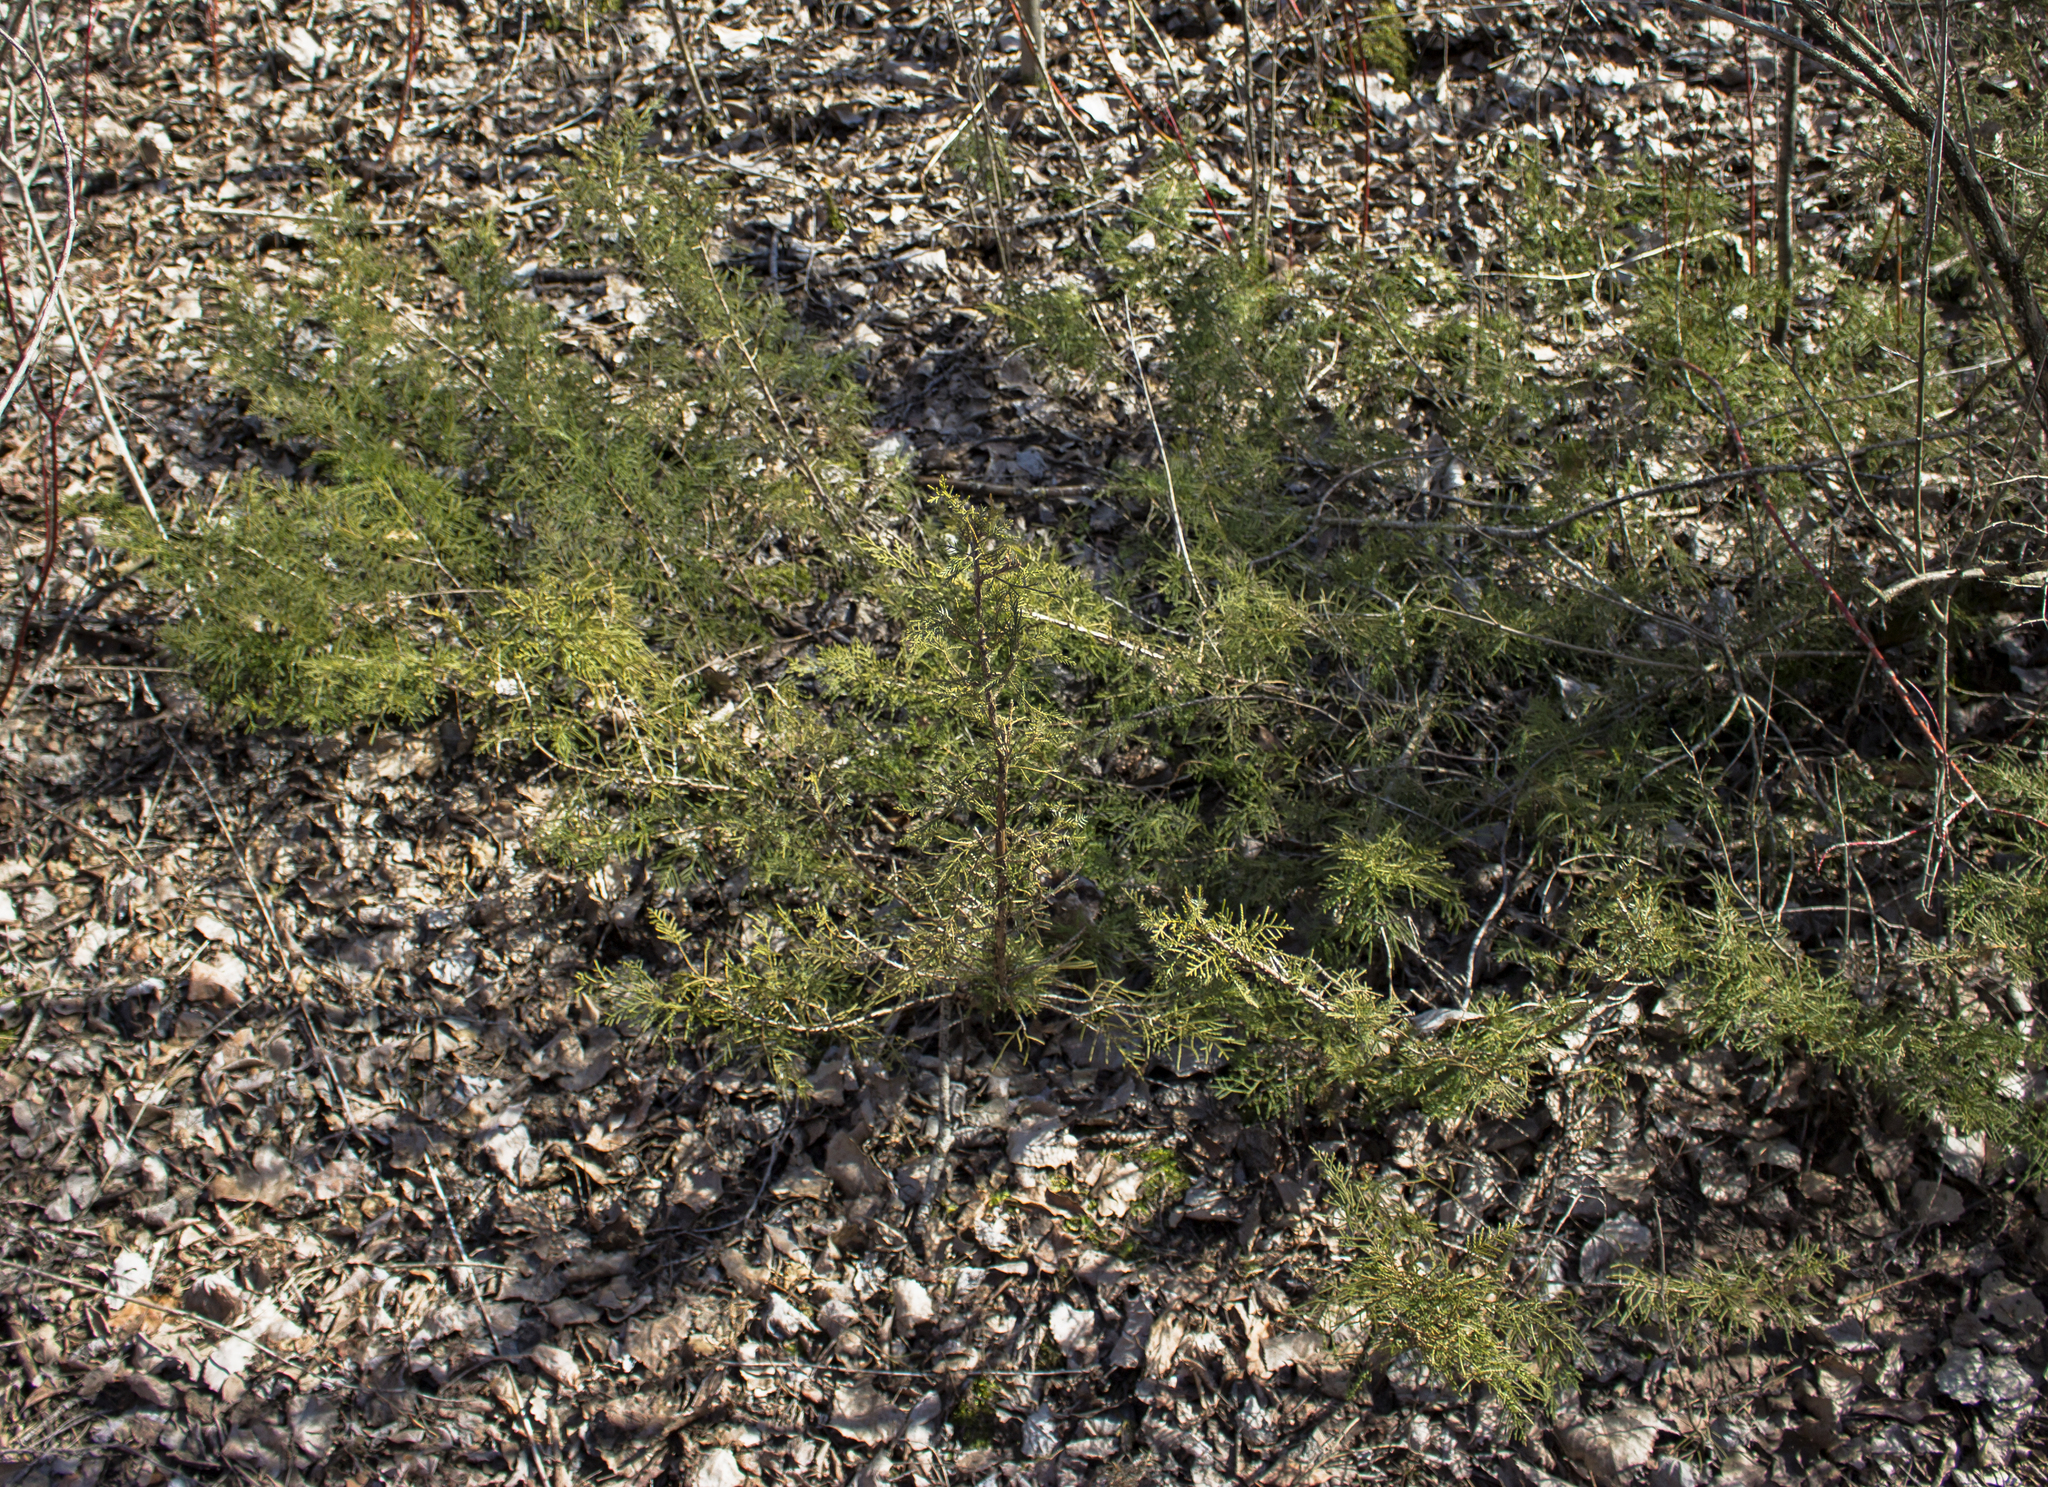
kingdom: Plantae
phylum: Tracheophyta
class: Pinopsida
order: Pinales
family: Cupressaceae
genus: Juniperus
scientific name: Juniperus communis
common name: Common juniper
